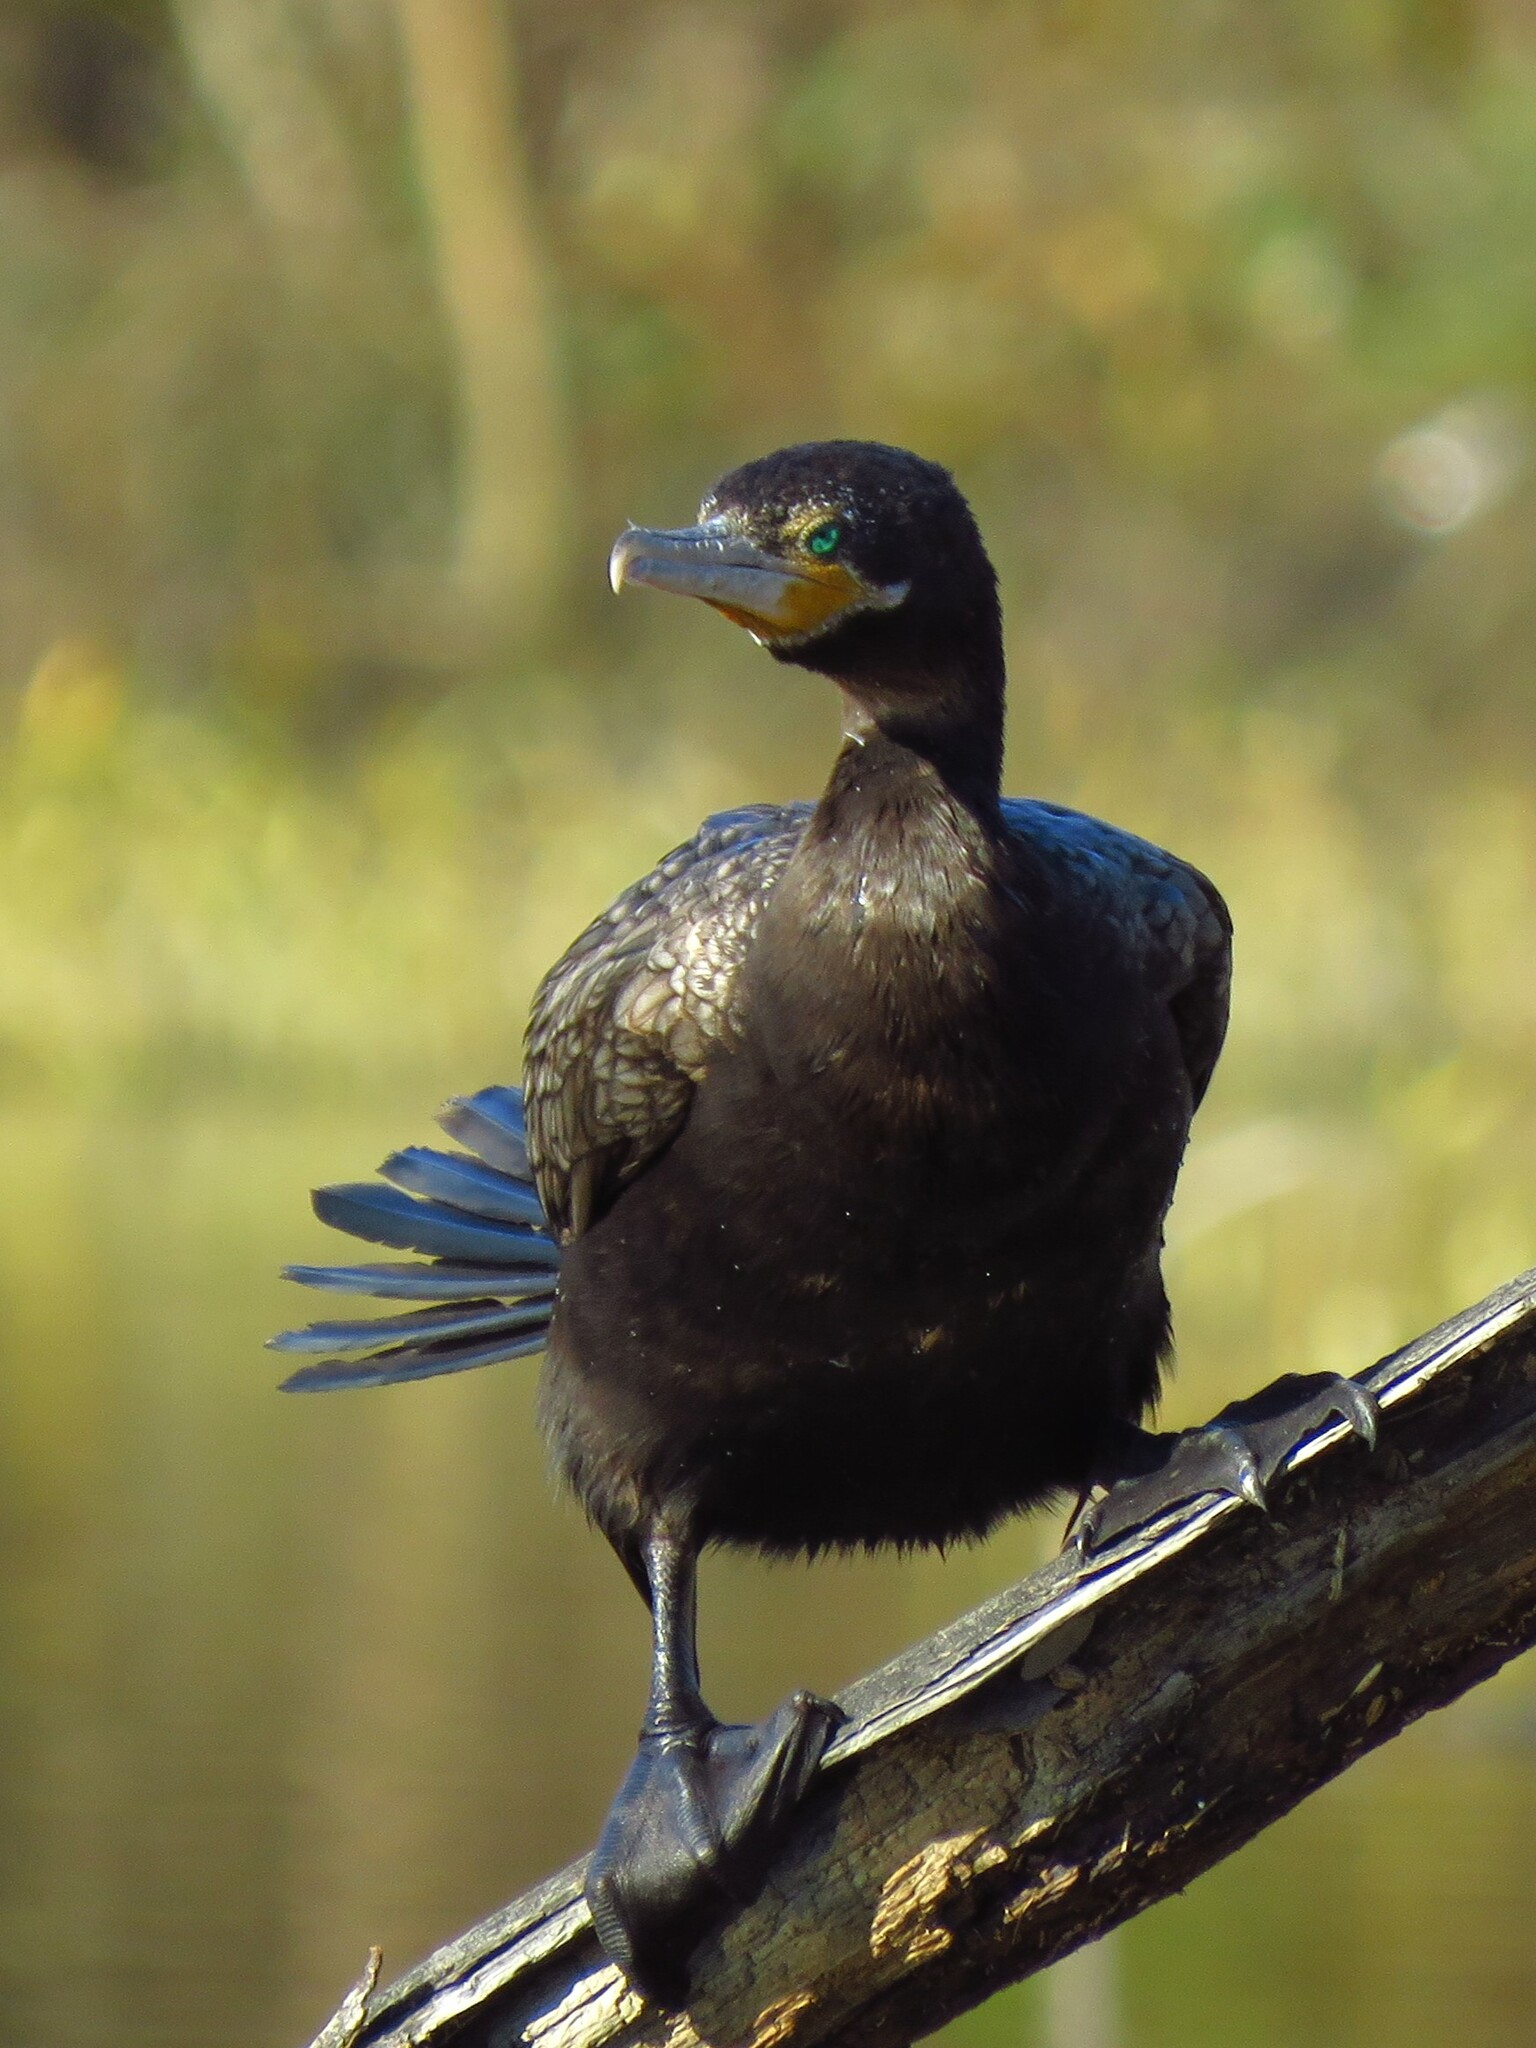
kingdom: Animalia
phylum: Chordata
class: Aves
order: Suliformes
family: Phalacrocoracidae
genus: Phalacrocorax
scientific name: Phalacrocorax brasilianus
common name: Neotropic cormorant
